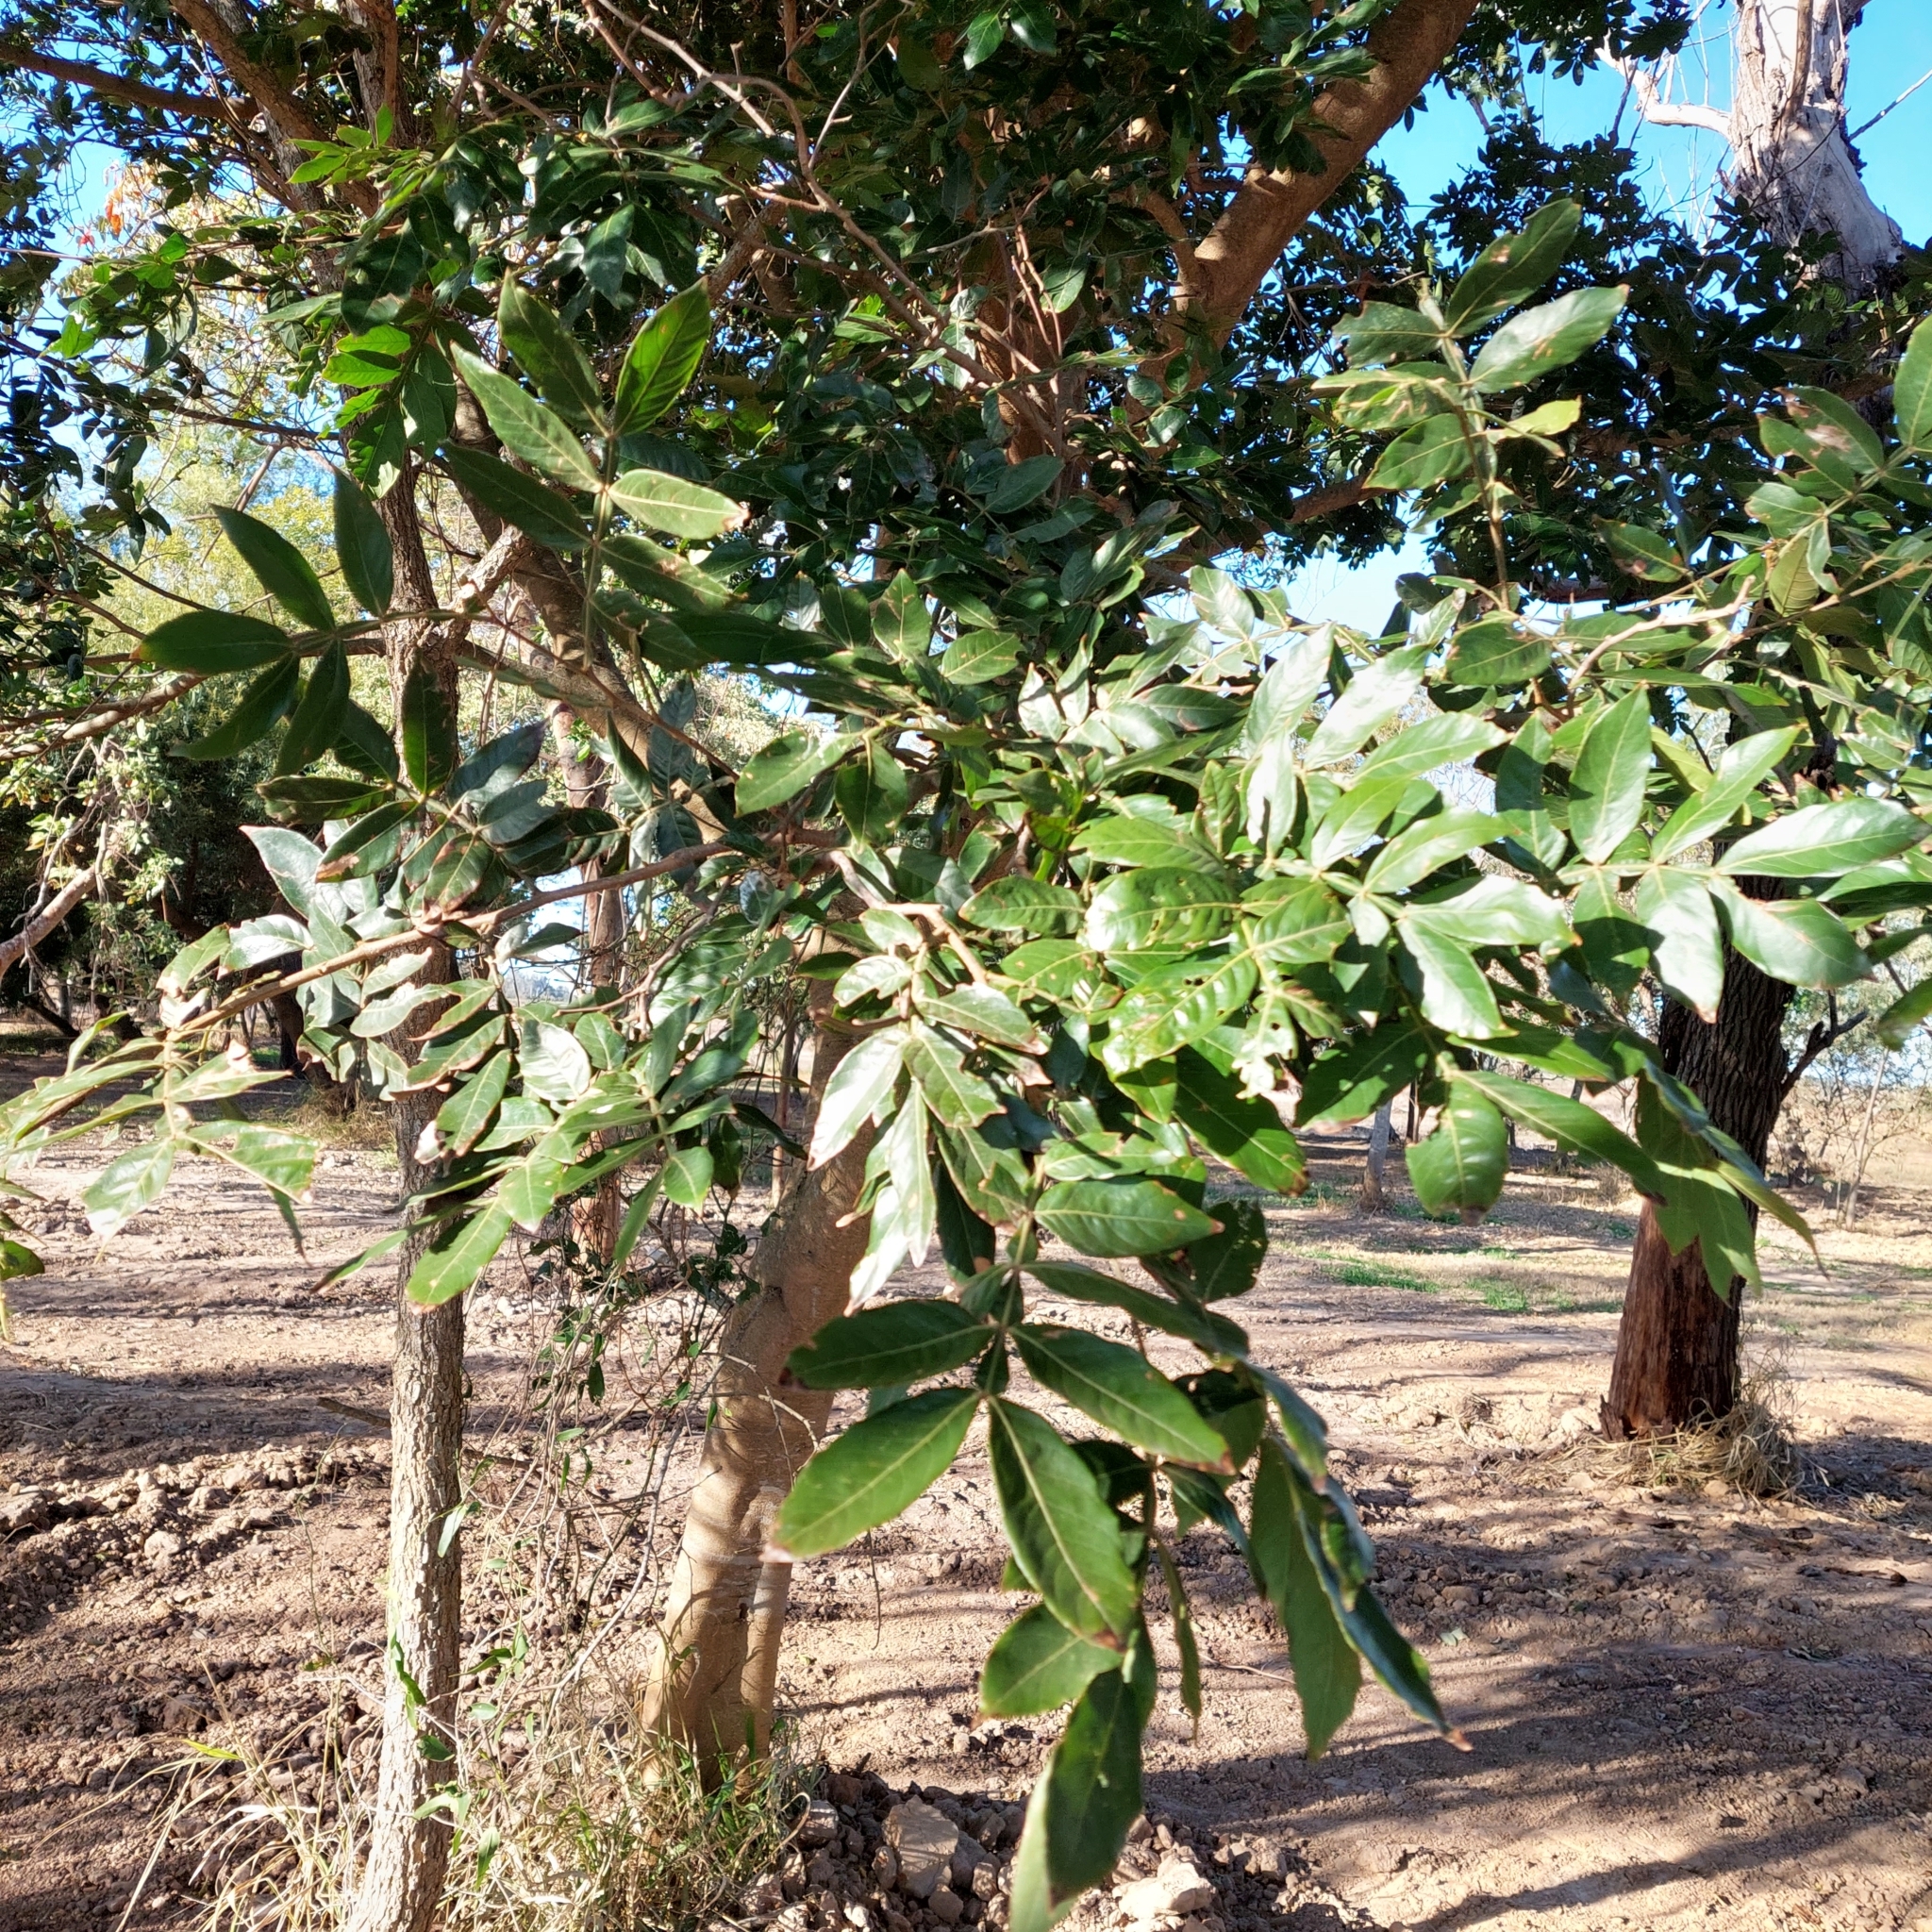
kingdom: Plantae
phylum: Tracheophyta
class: Magnoliopsida
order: Fabales
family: Fabaceae
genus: Inga
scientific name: Inga uraguensis
